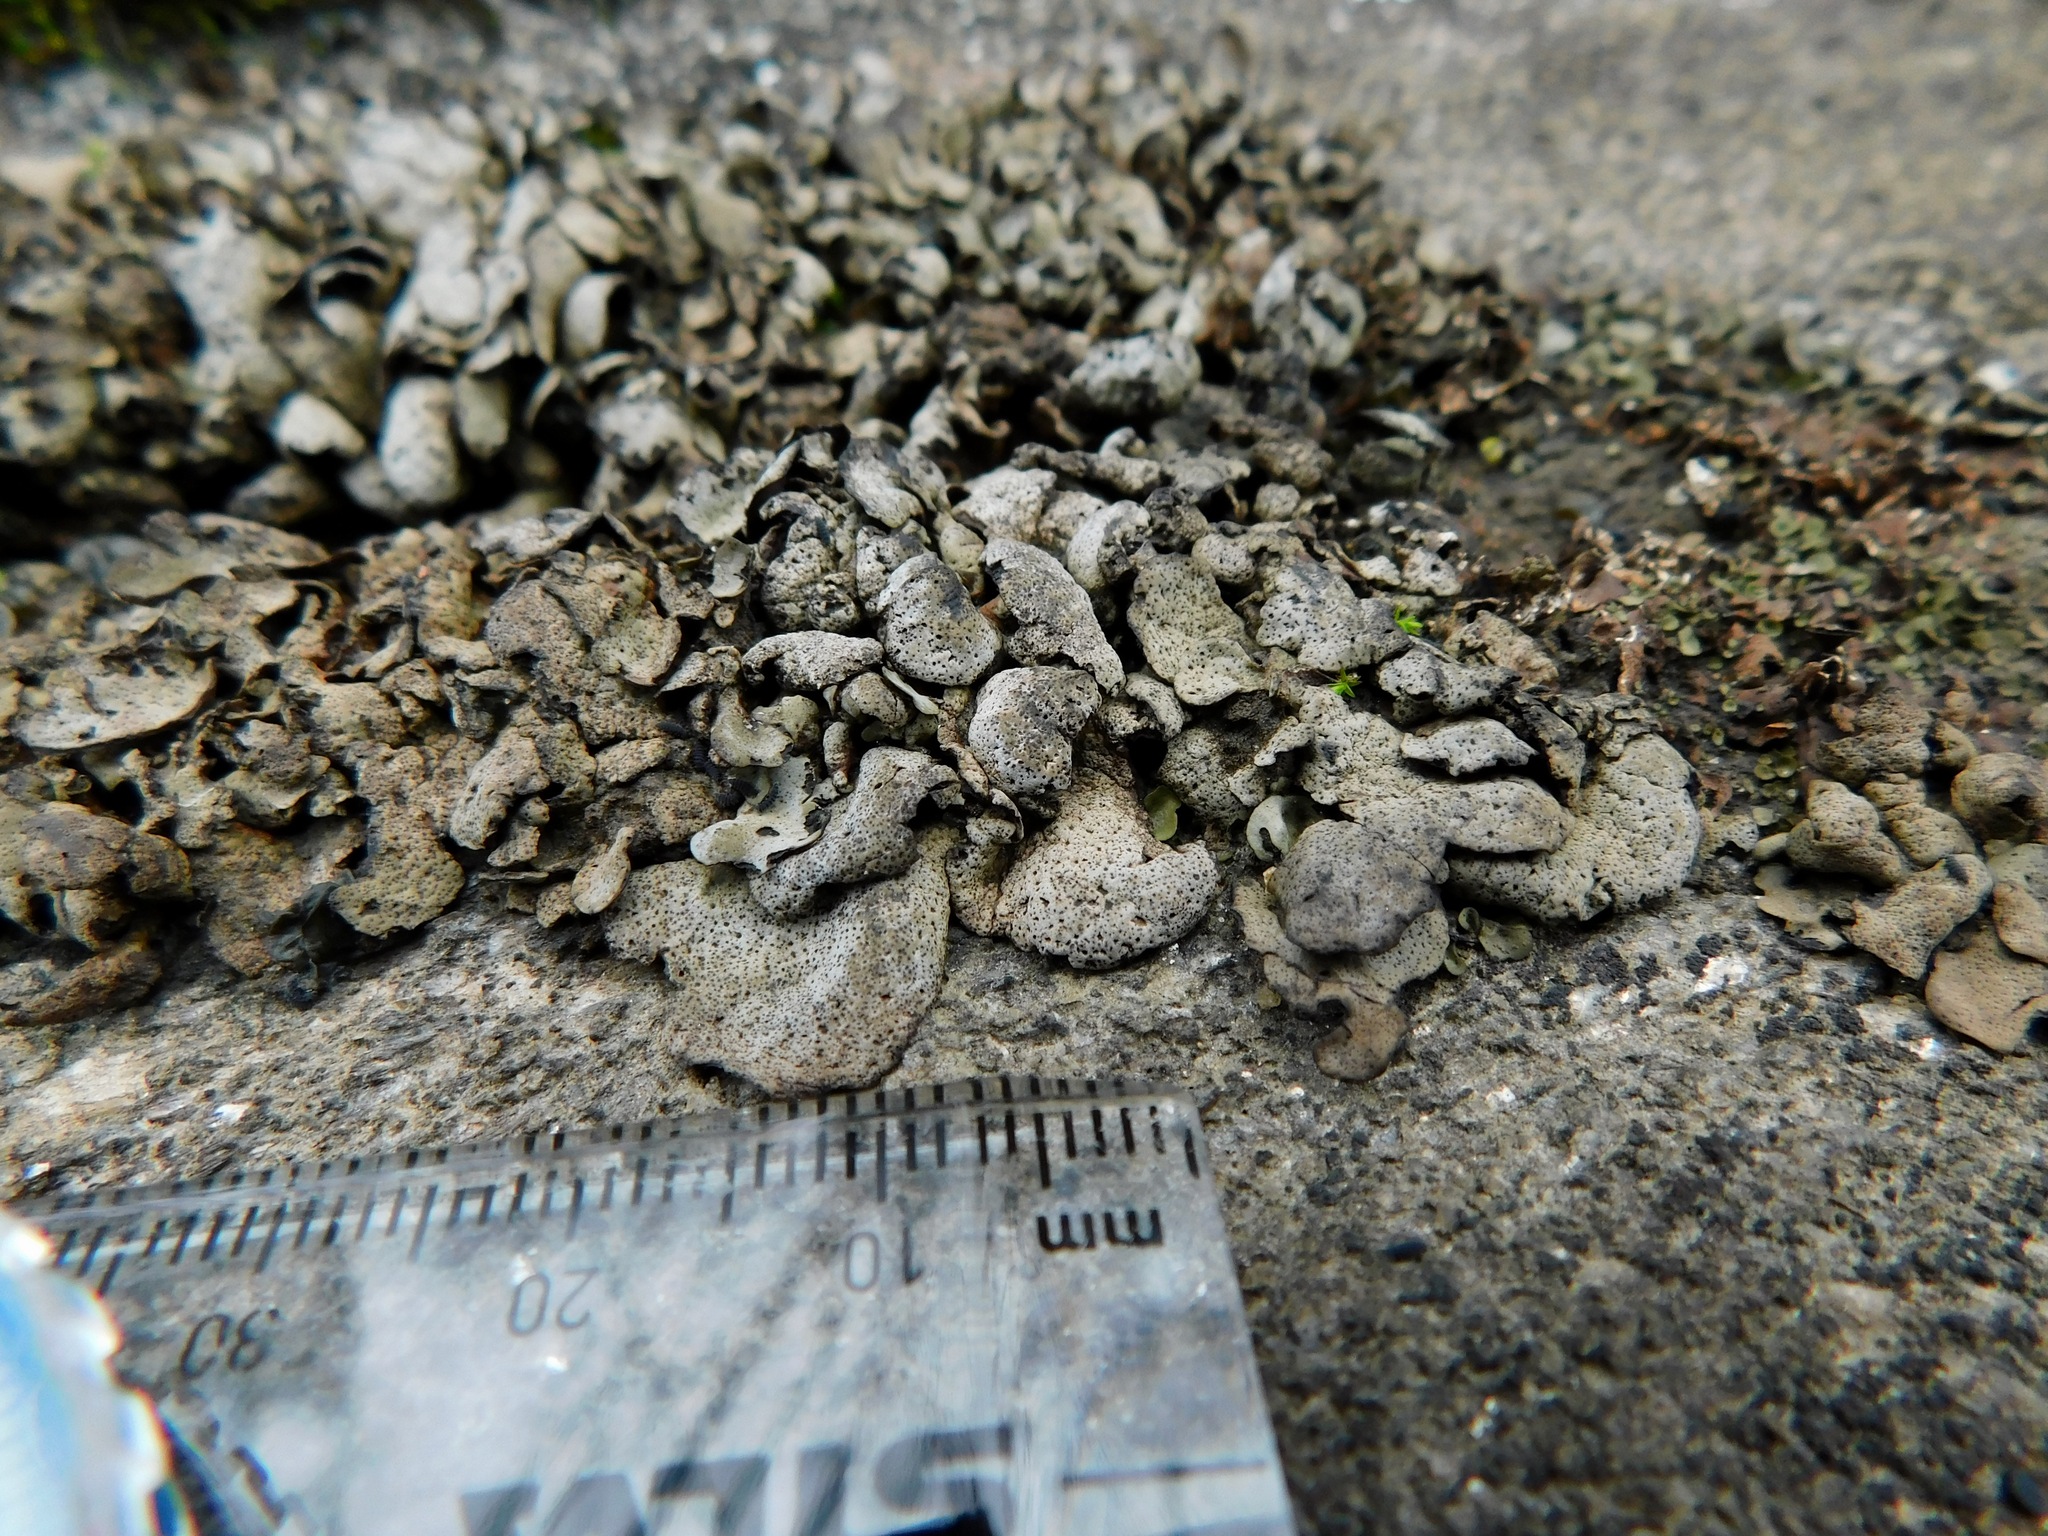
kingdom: Fungi
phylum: Ascomycota
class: Eurotiomycetes
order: Verrucariales
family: Verrucariaceae
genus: Dermatocarpon
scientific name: Dermatocarpon luridum
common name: Brook stippleback lichen
